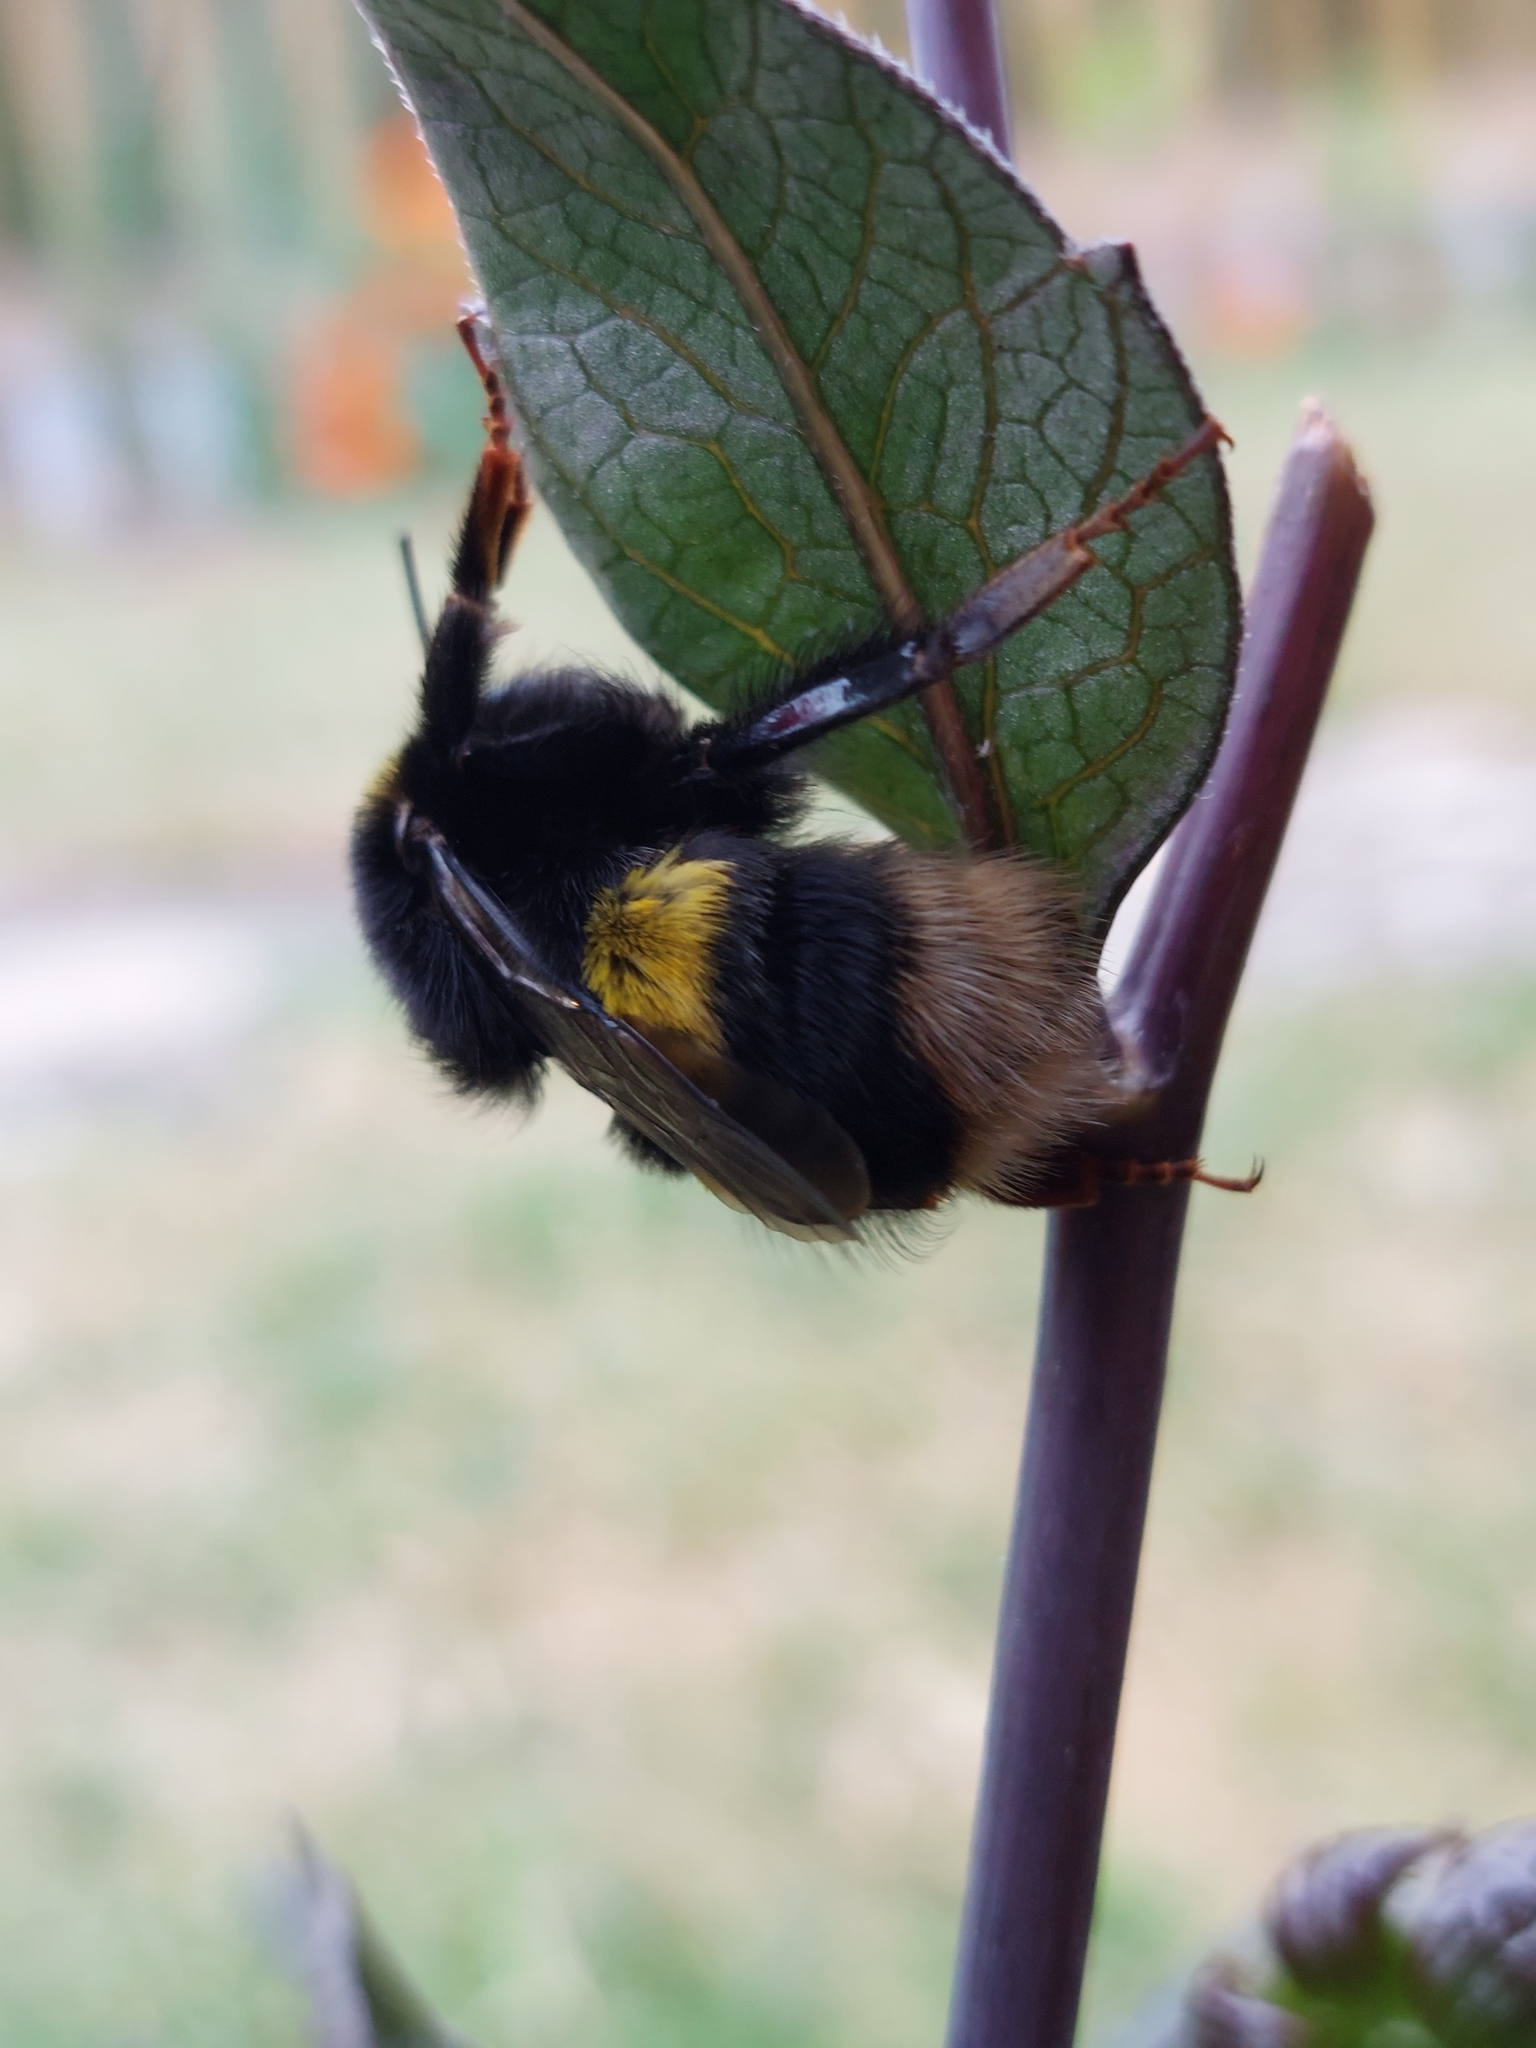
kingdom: Animalia
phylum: Arthropoda
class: Insecta
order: Hymenoptera
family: Apidae
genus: Bombus
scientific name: Bombus terrestris
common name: Buff-tailed bumblebee
